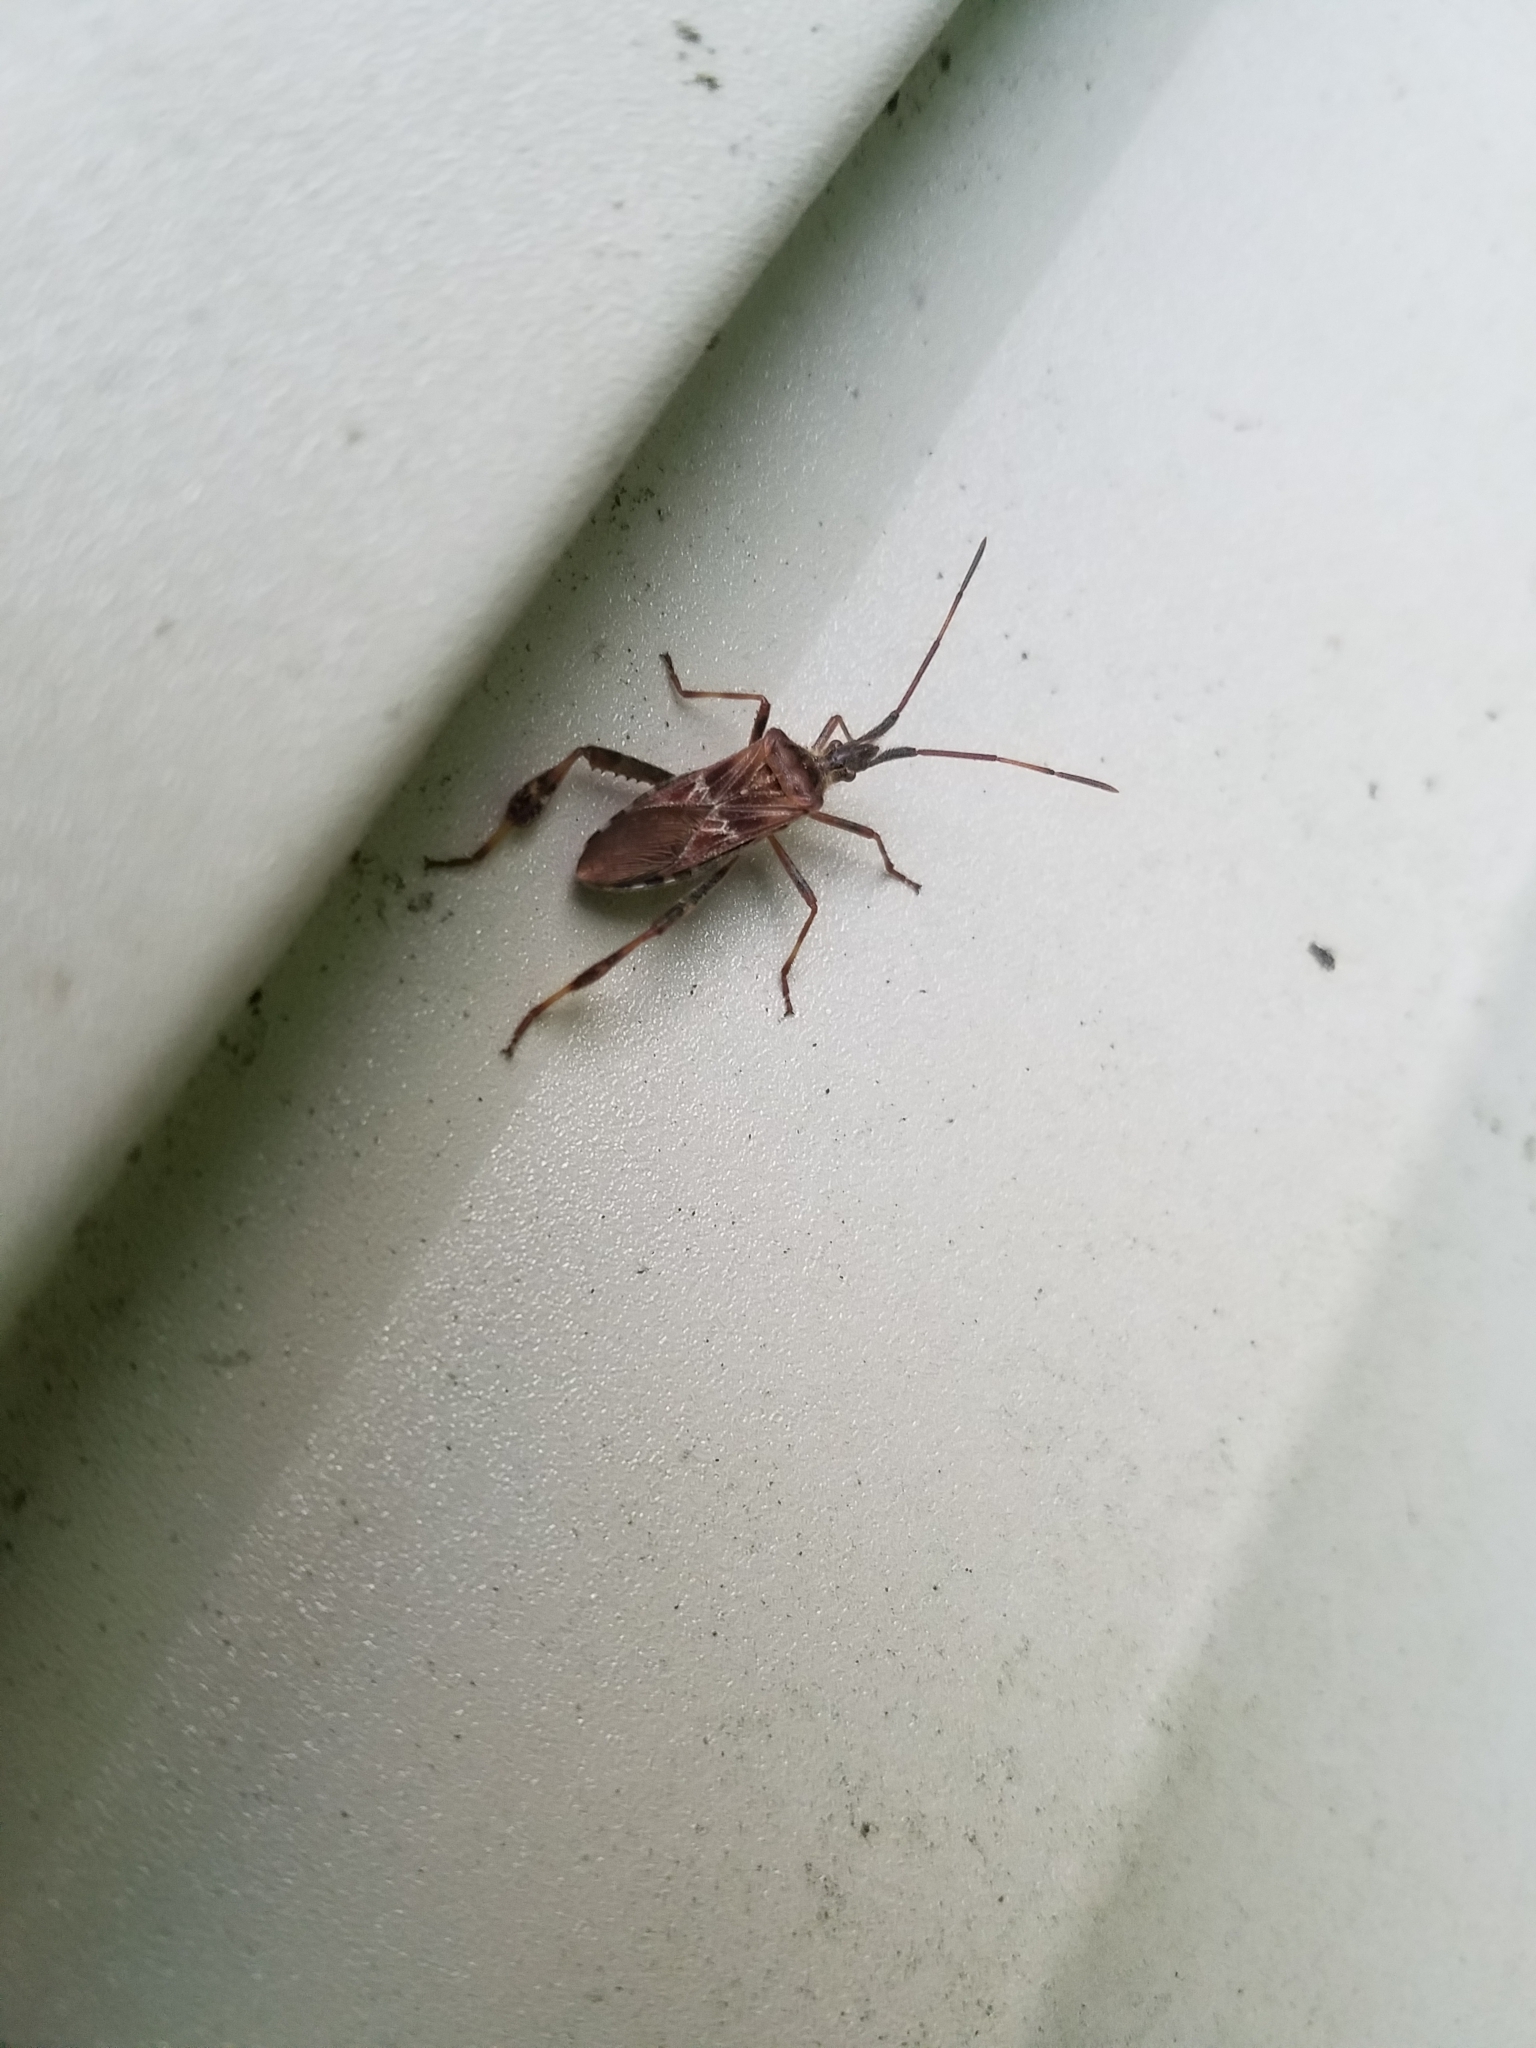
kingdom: Animalia
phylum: Arthropoda
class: Insecta
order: Hemiptera
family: Coreidae
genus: Leptoglossus
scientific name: Leptoglossus occidentalis
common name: Western conifer-seed bug
